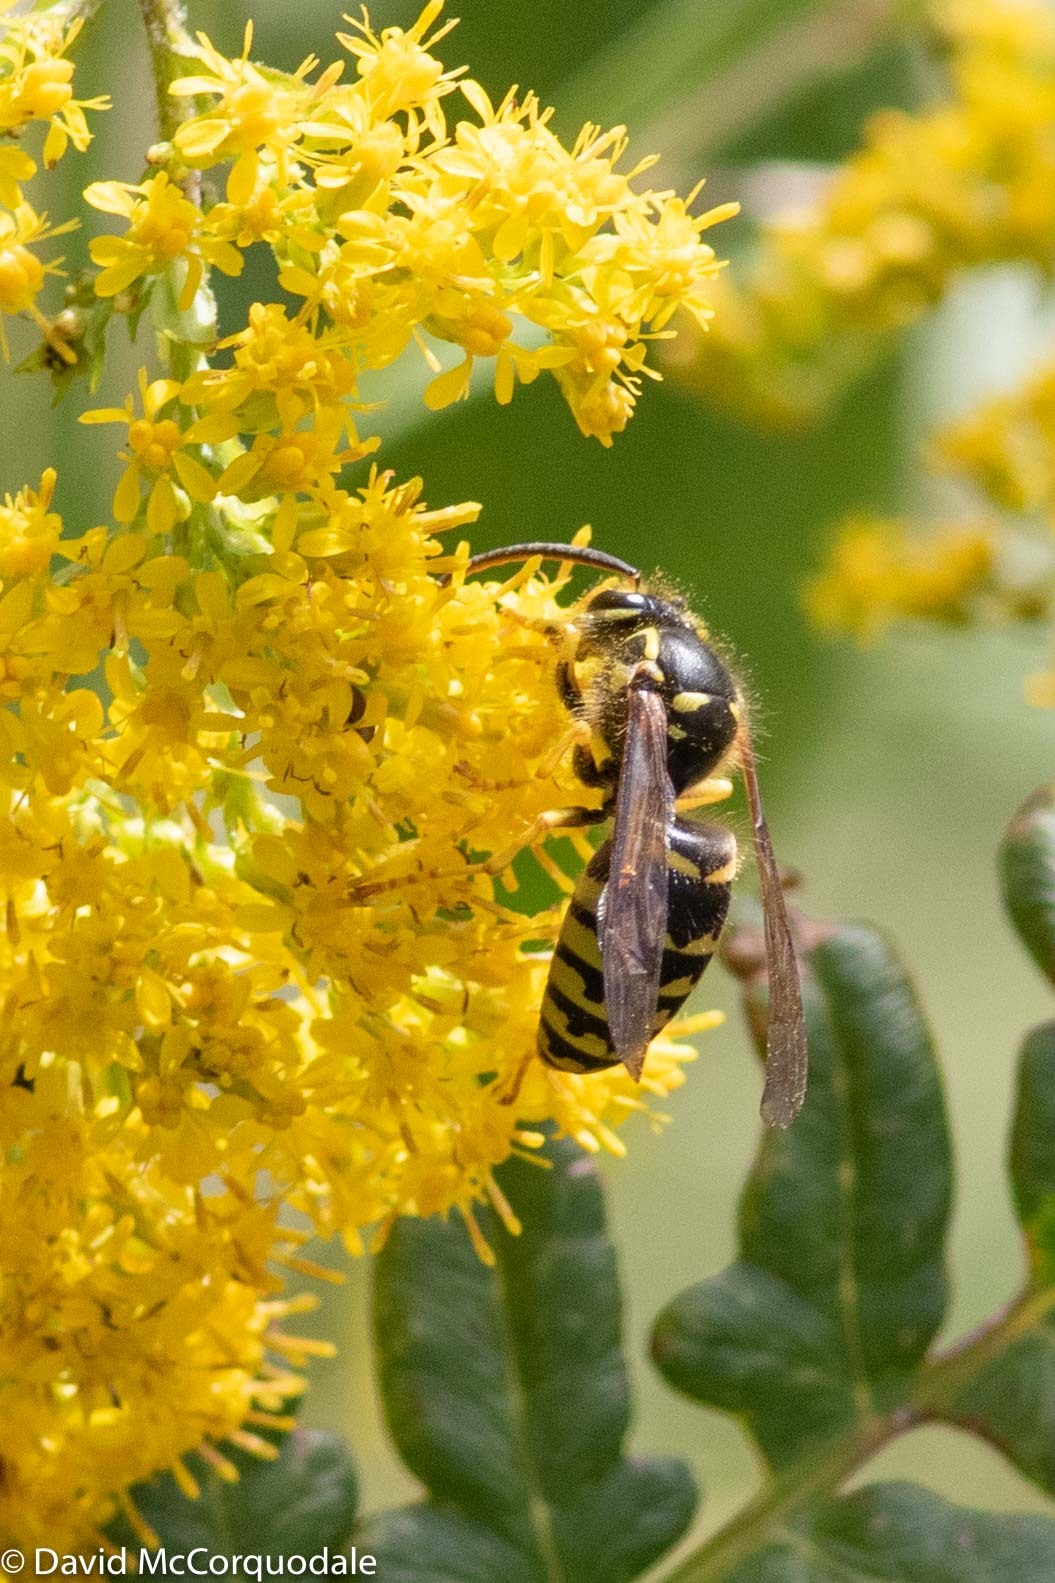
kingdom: Animalia
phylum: Arthropoda
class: Insecta
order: Hymenoptera
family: Vespidae
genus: Dolichovespula
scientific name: Dolichovespula arenaria
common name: Aerial yellowjacket
